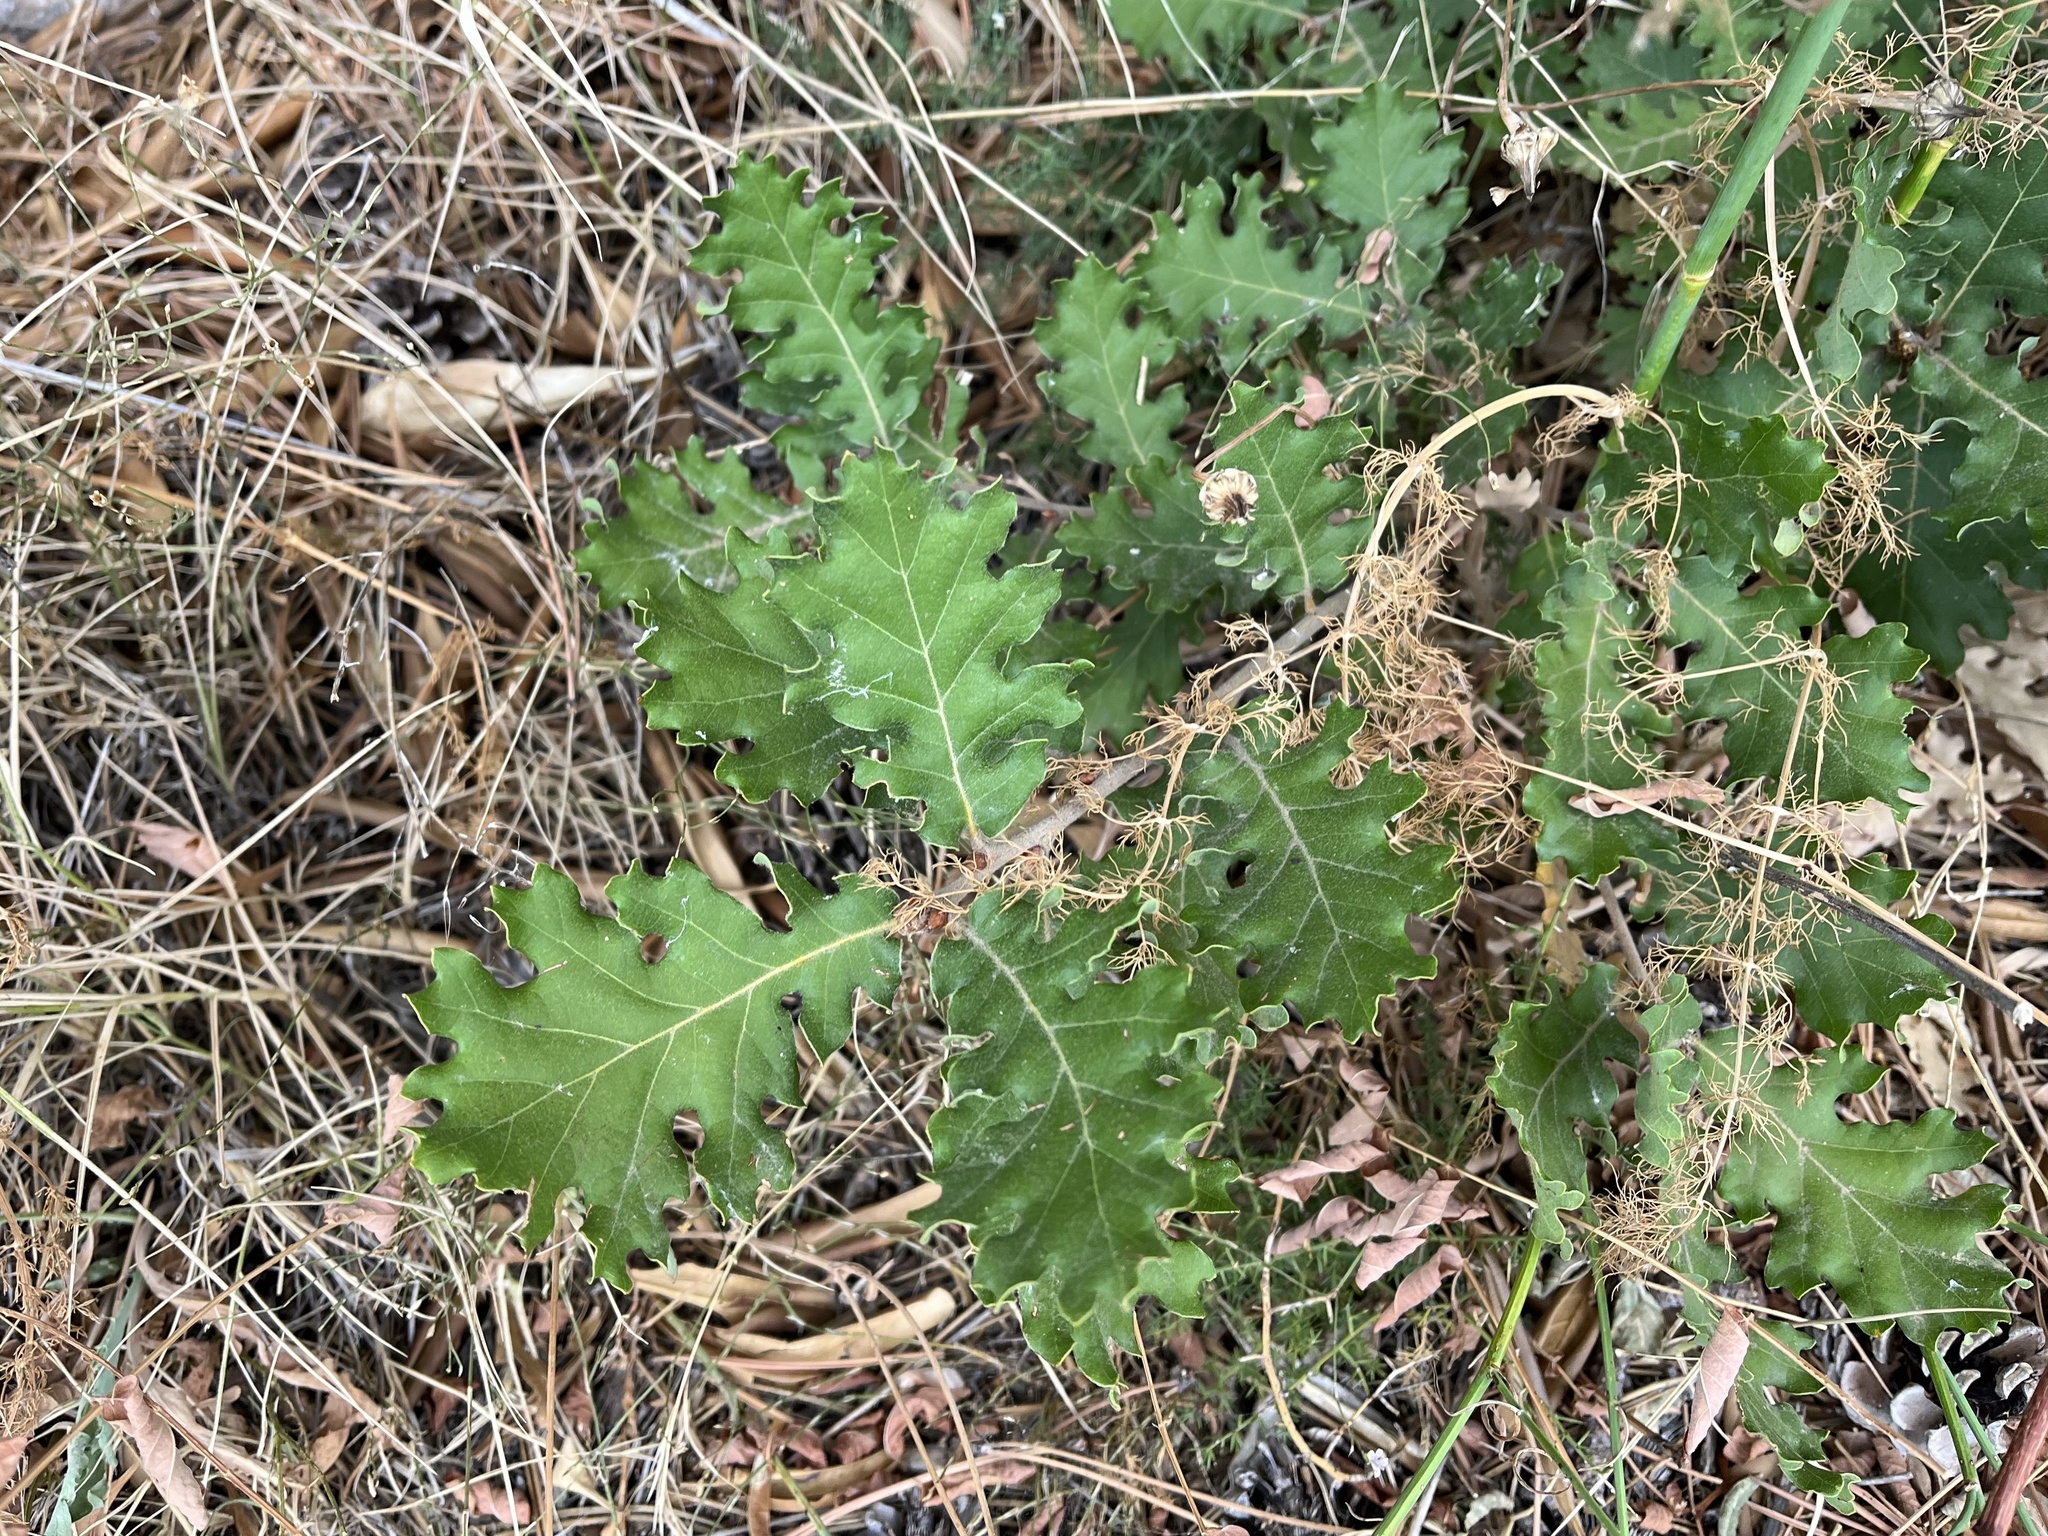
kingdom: Plantae
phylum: Tracheophyta
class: Magnoliopsida
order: Fagales
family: Fagaceae
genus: Quercus
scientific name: Quercus pubescens
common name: Downy oak
